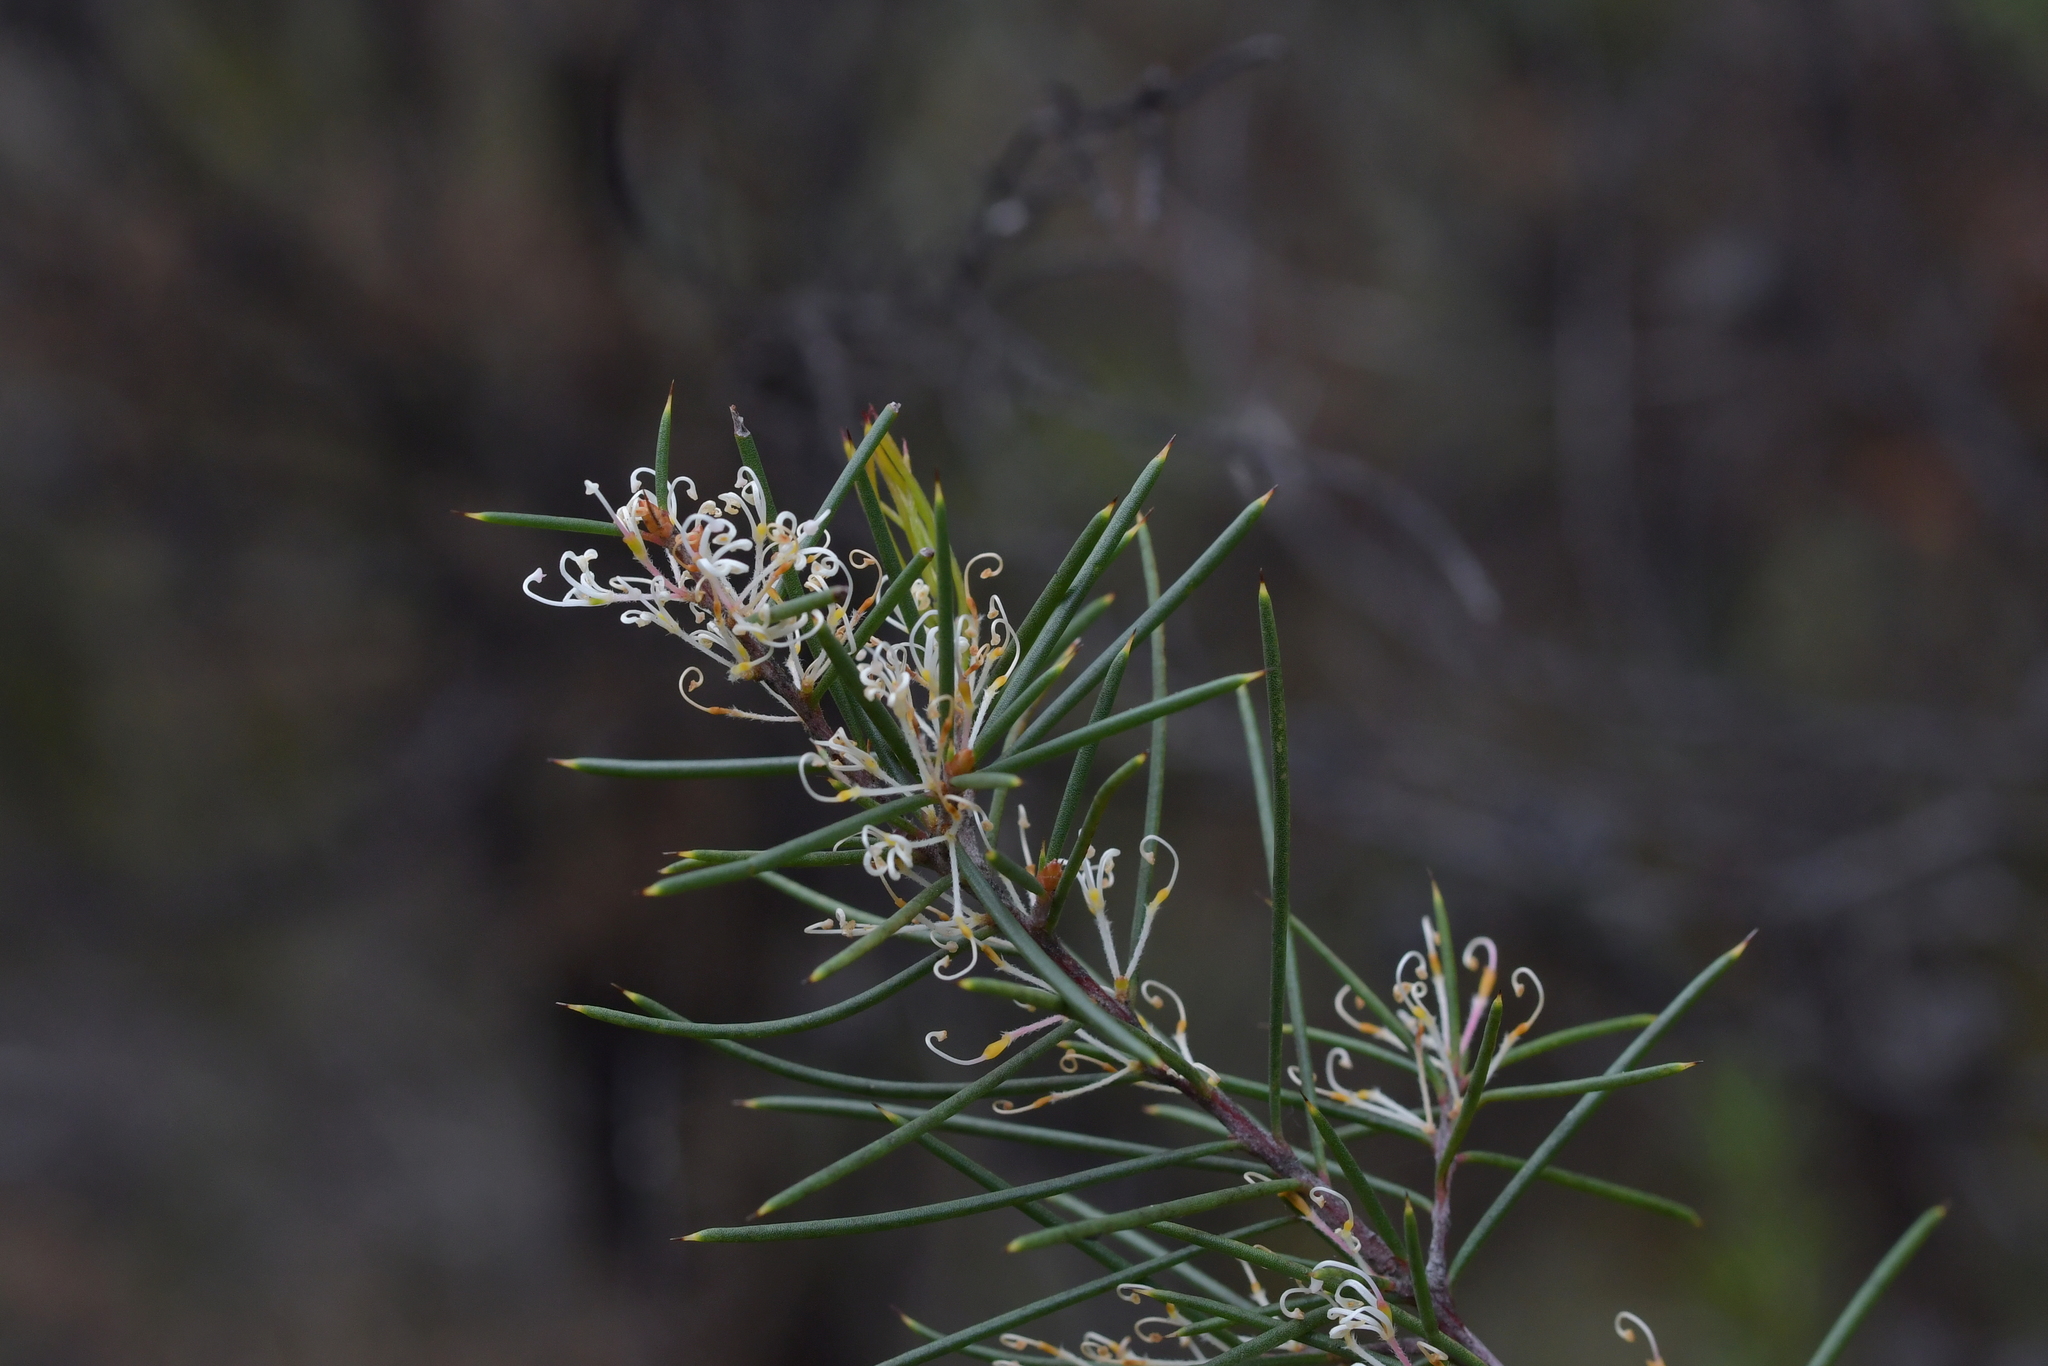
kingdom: Plantae
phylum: Tracheophyta
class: Magnoliopsida
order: Proteales
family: Proteaceae
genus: Hakea
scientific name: Hakea sericea
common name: Needle bush
